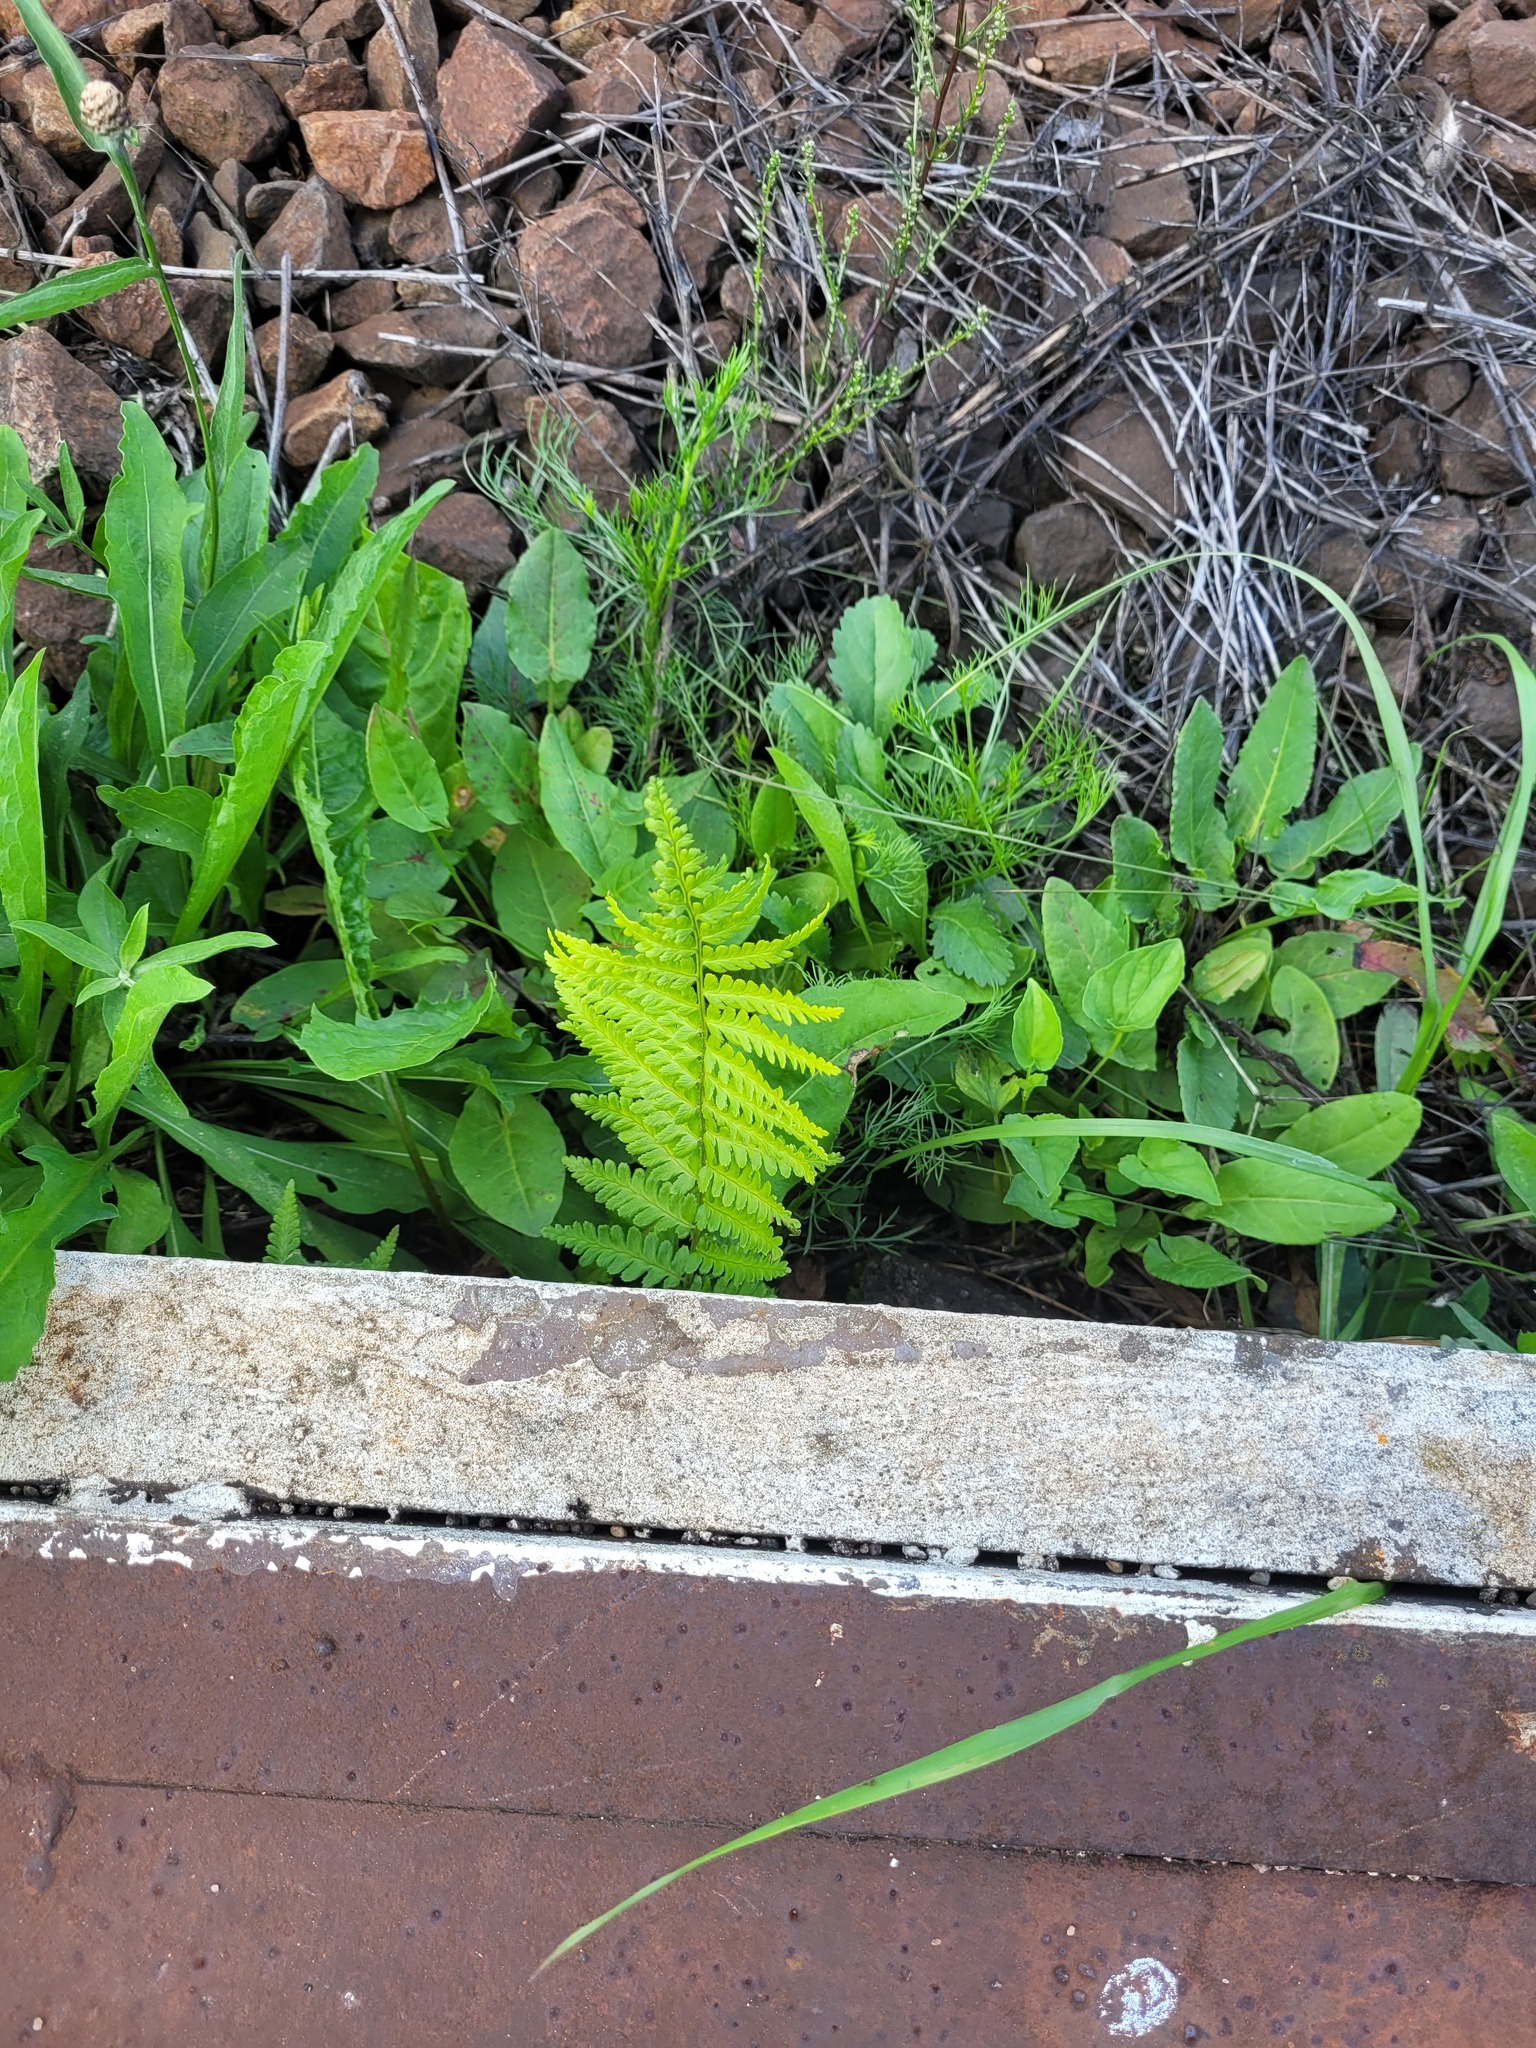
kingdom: Plantae
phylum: Tracheophyta
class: Polypodiopsida
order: Polypodiales
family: Dryopteridaceae
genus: Dryopteris
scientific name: Dryopteris filix-mas
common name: Male fern
